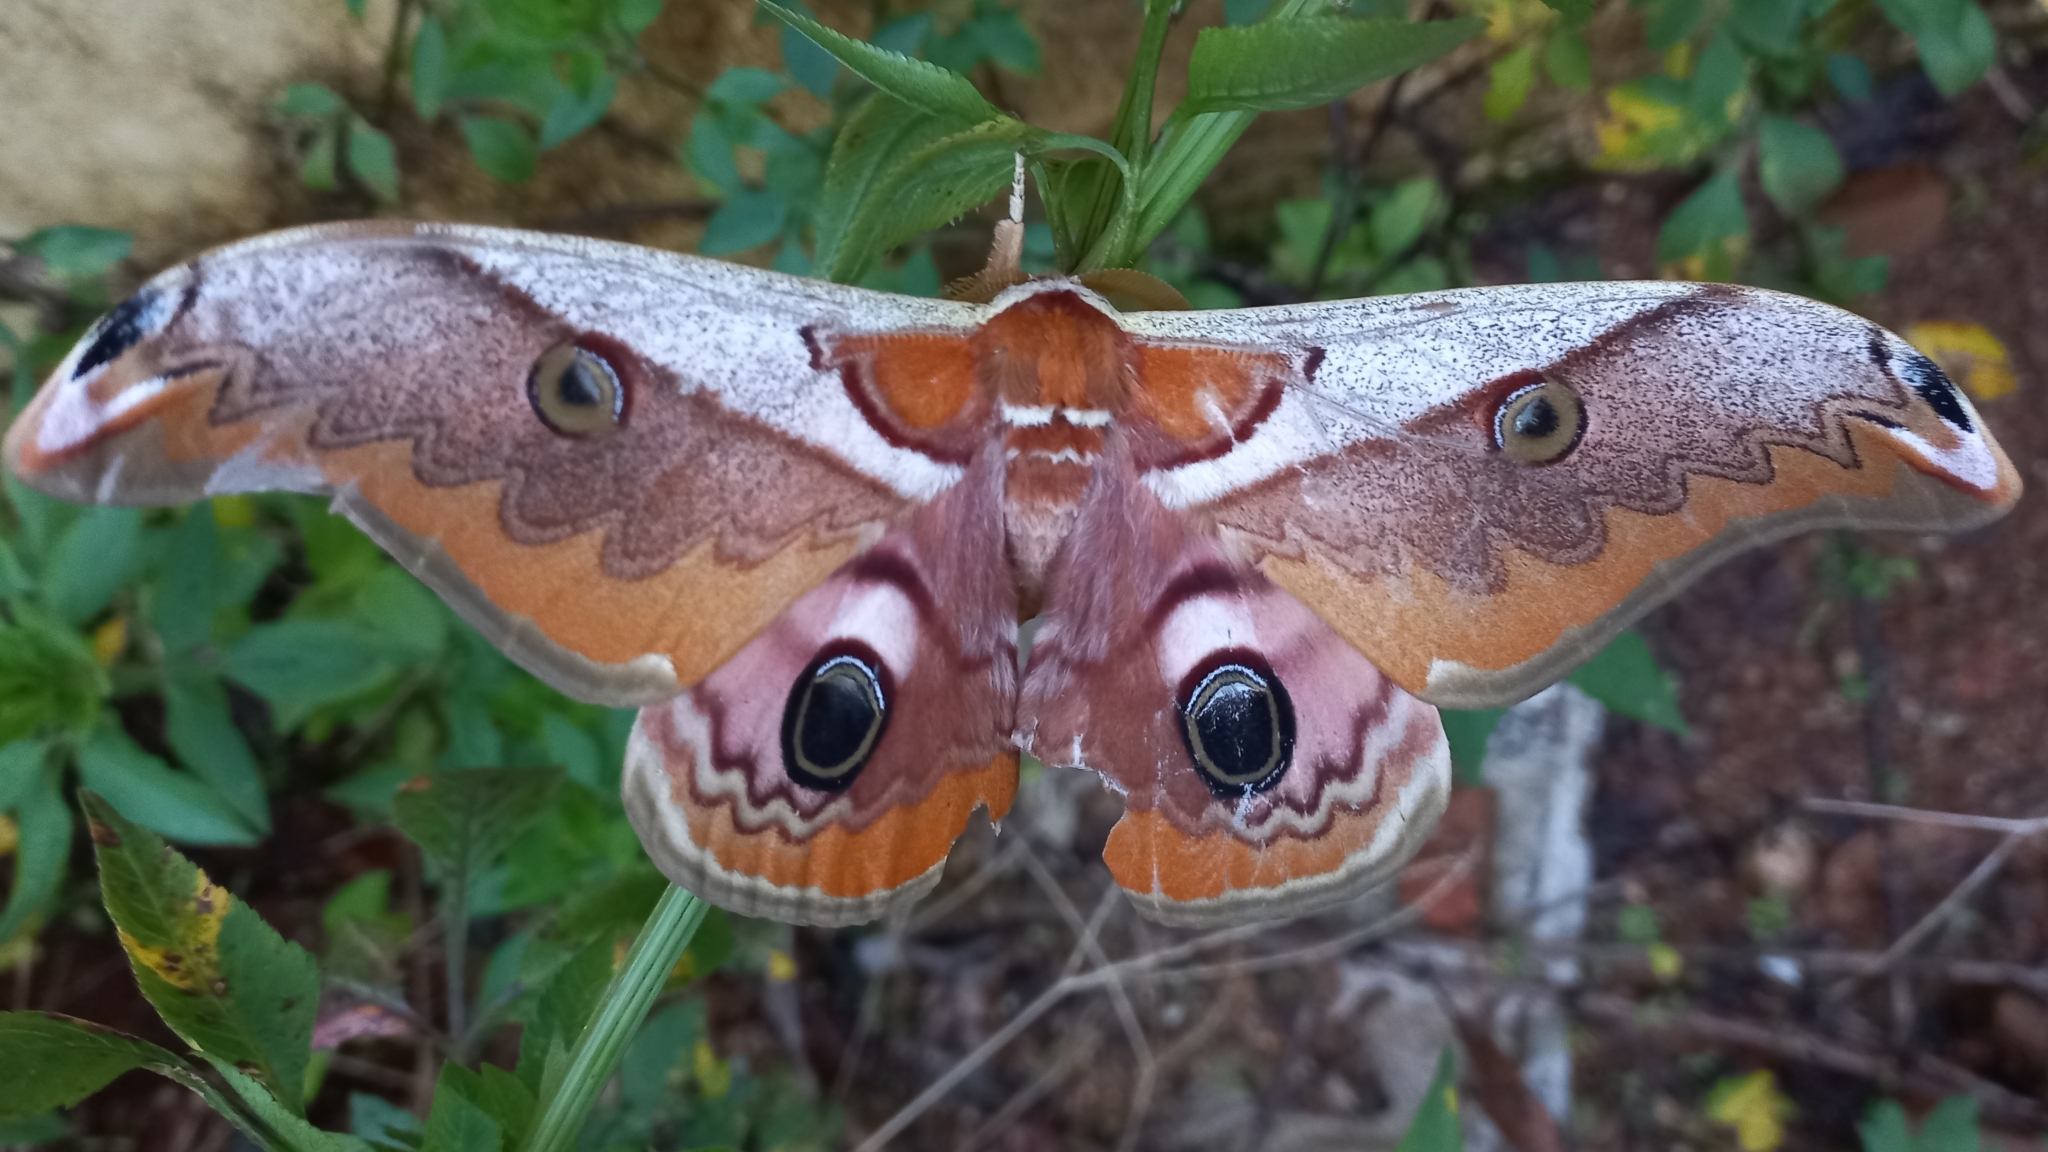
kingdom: Animalia
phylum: Arthropoda
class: Insecta
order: Lepidoptera
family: Saturniidae
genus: Saturnia
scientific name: Saturnia simla
